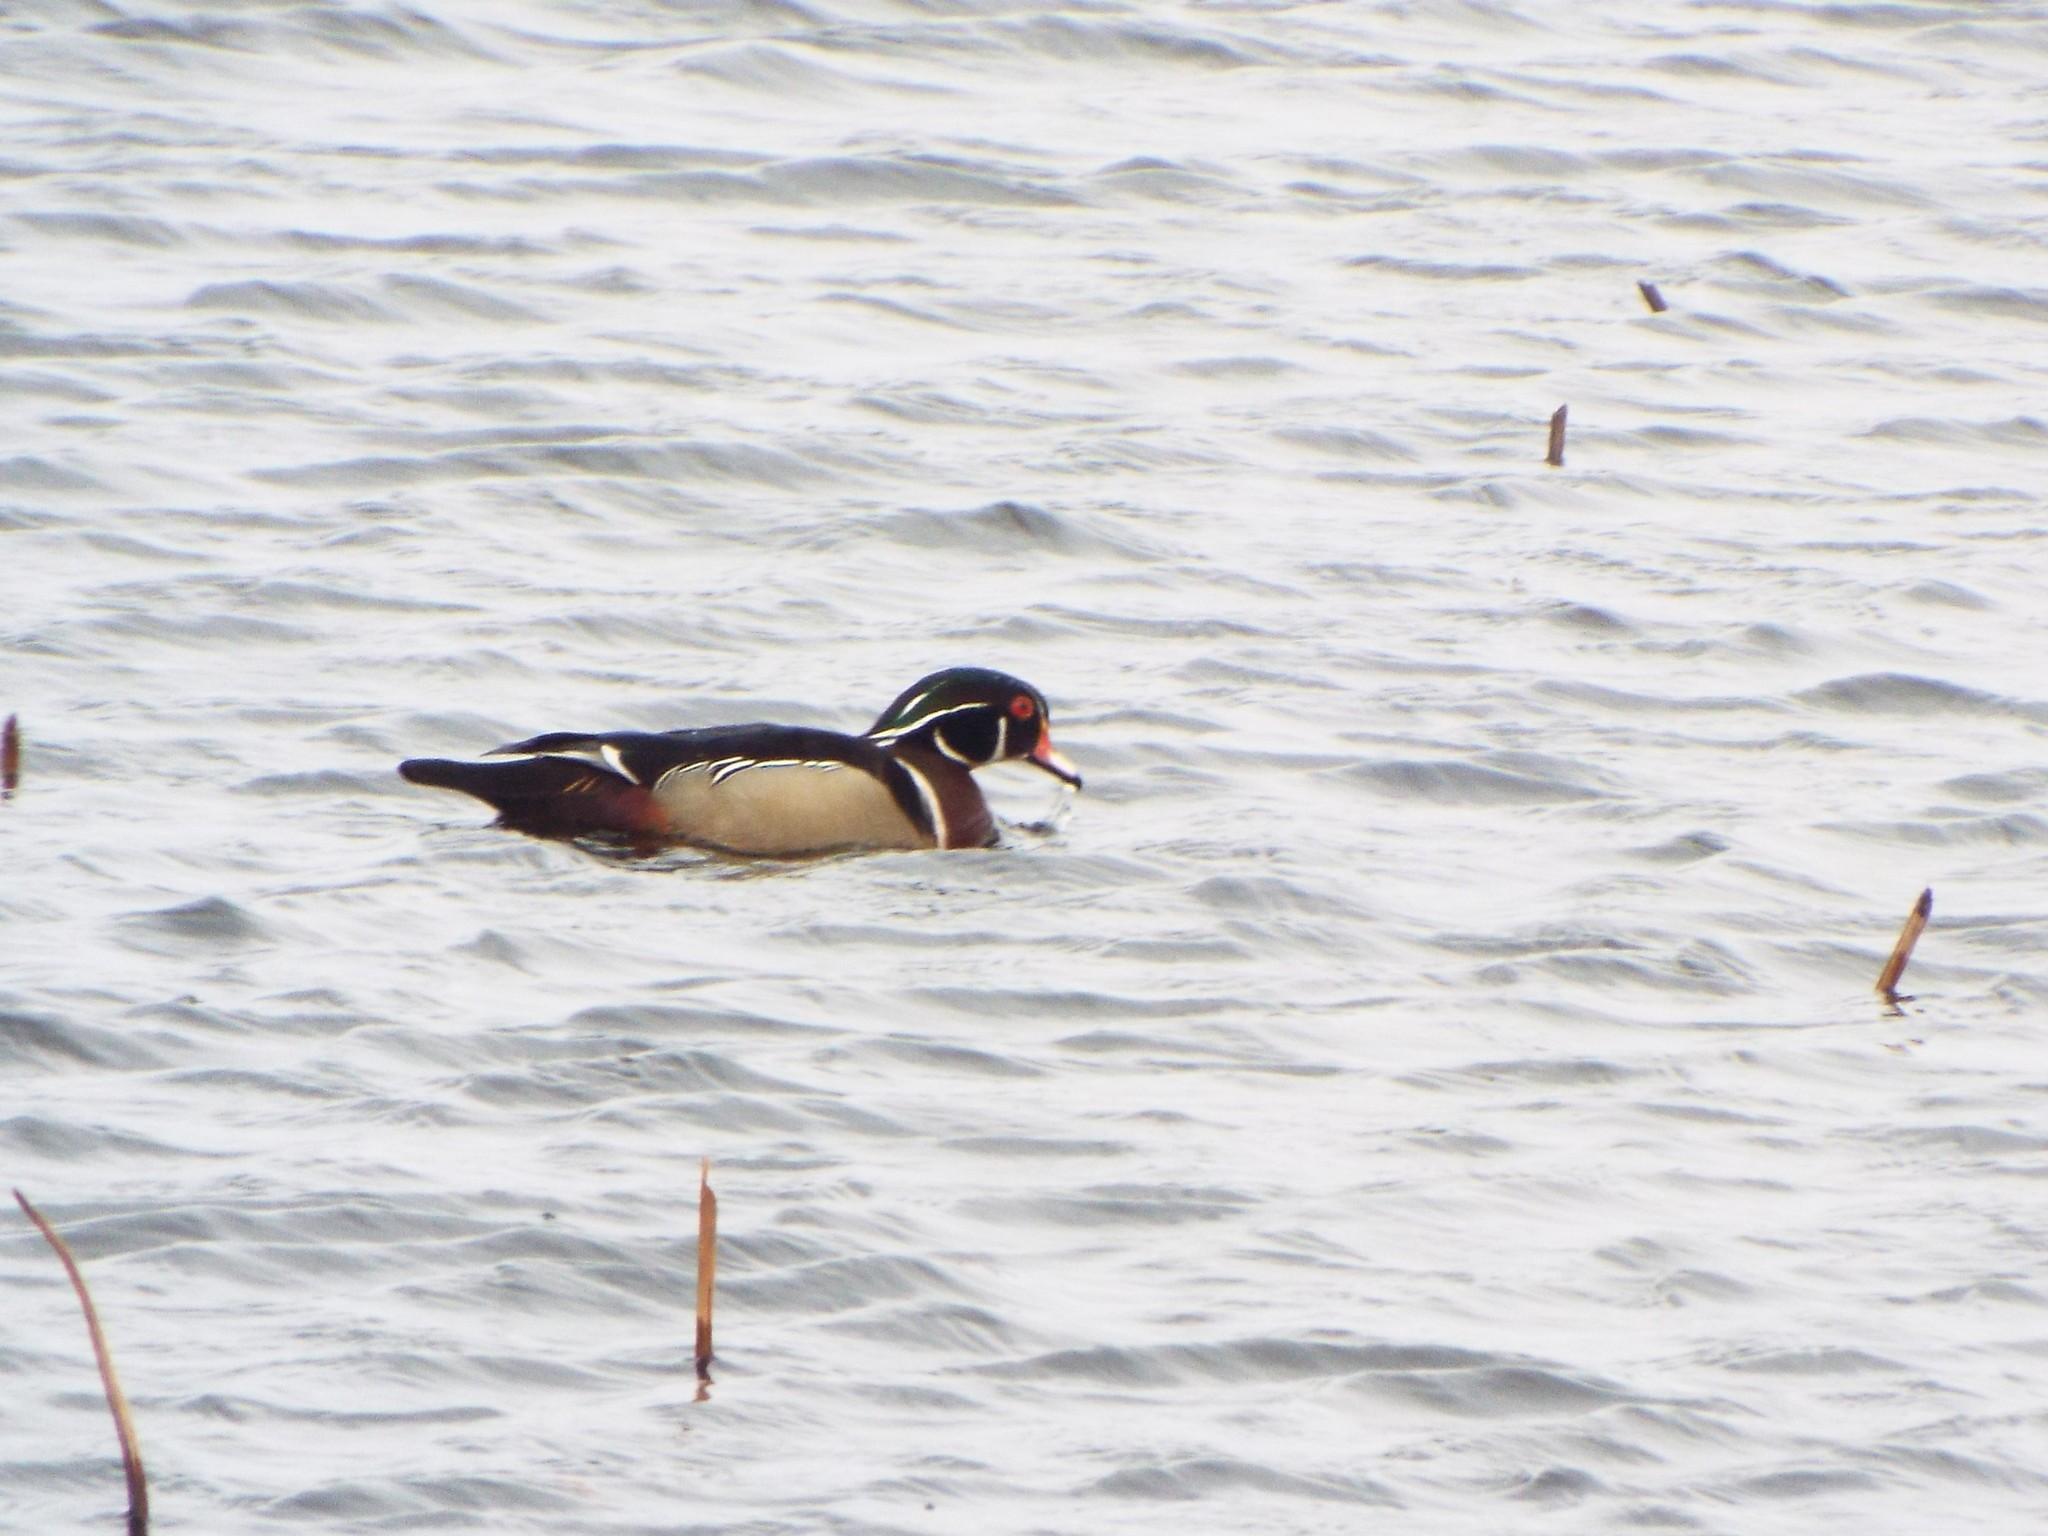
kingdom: Animalia
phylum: Chordata
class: Aves
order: Anseriformes
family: Anatidae
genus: Aix
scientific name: Aix sponsa
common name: Wood duck
